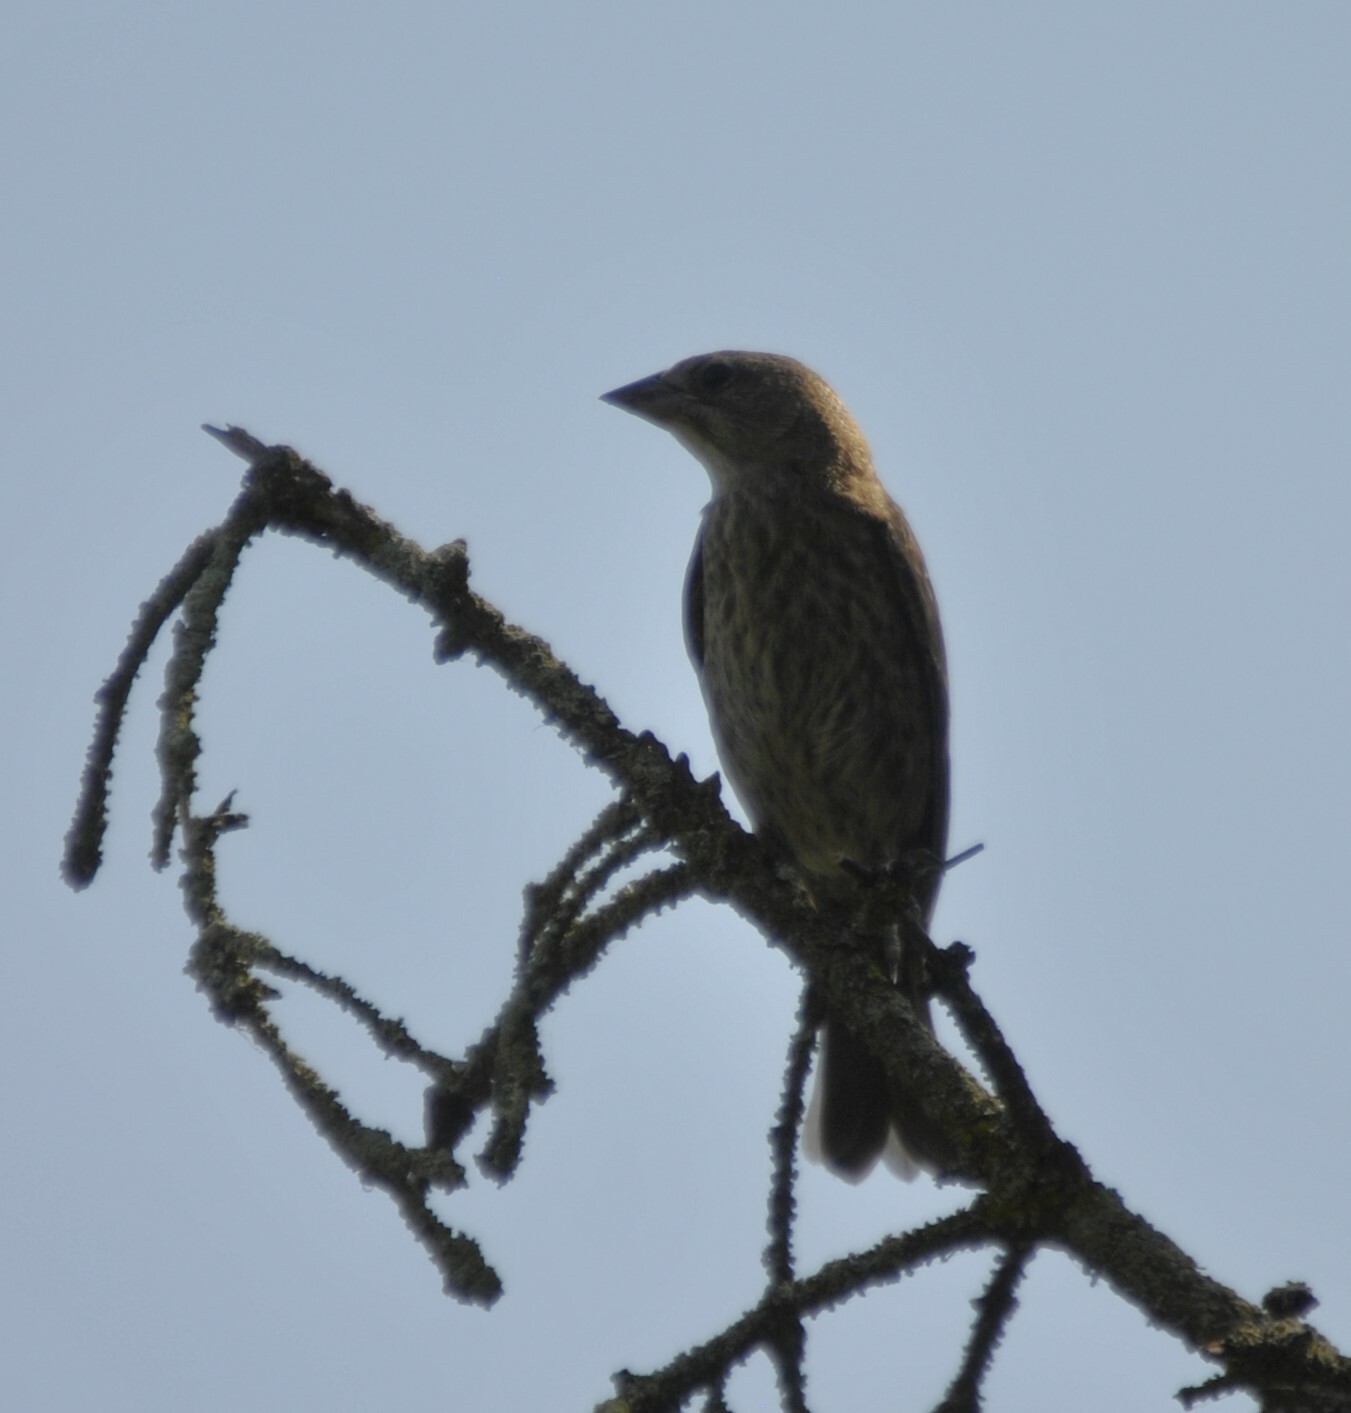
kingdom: Animalia
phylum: Chordata
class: Aves
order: Passeriformes
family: Icteridae
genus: Molothrus
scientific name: Molothrus ater
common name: Brown-headed cowbird
